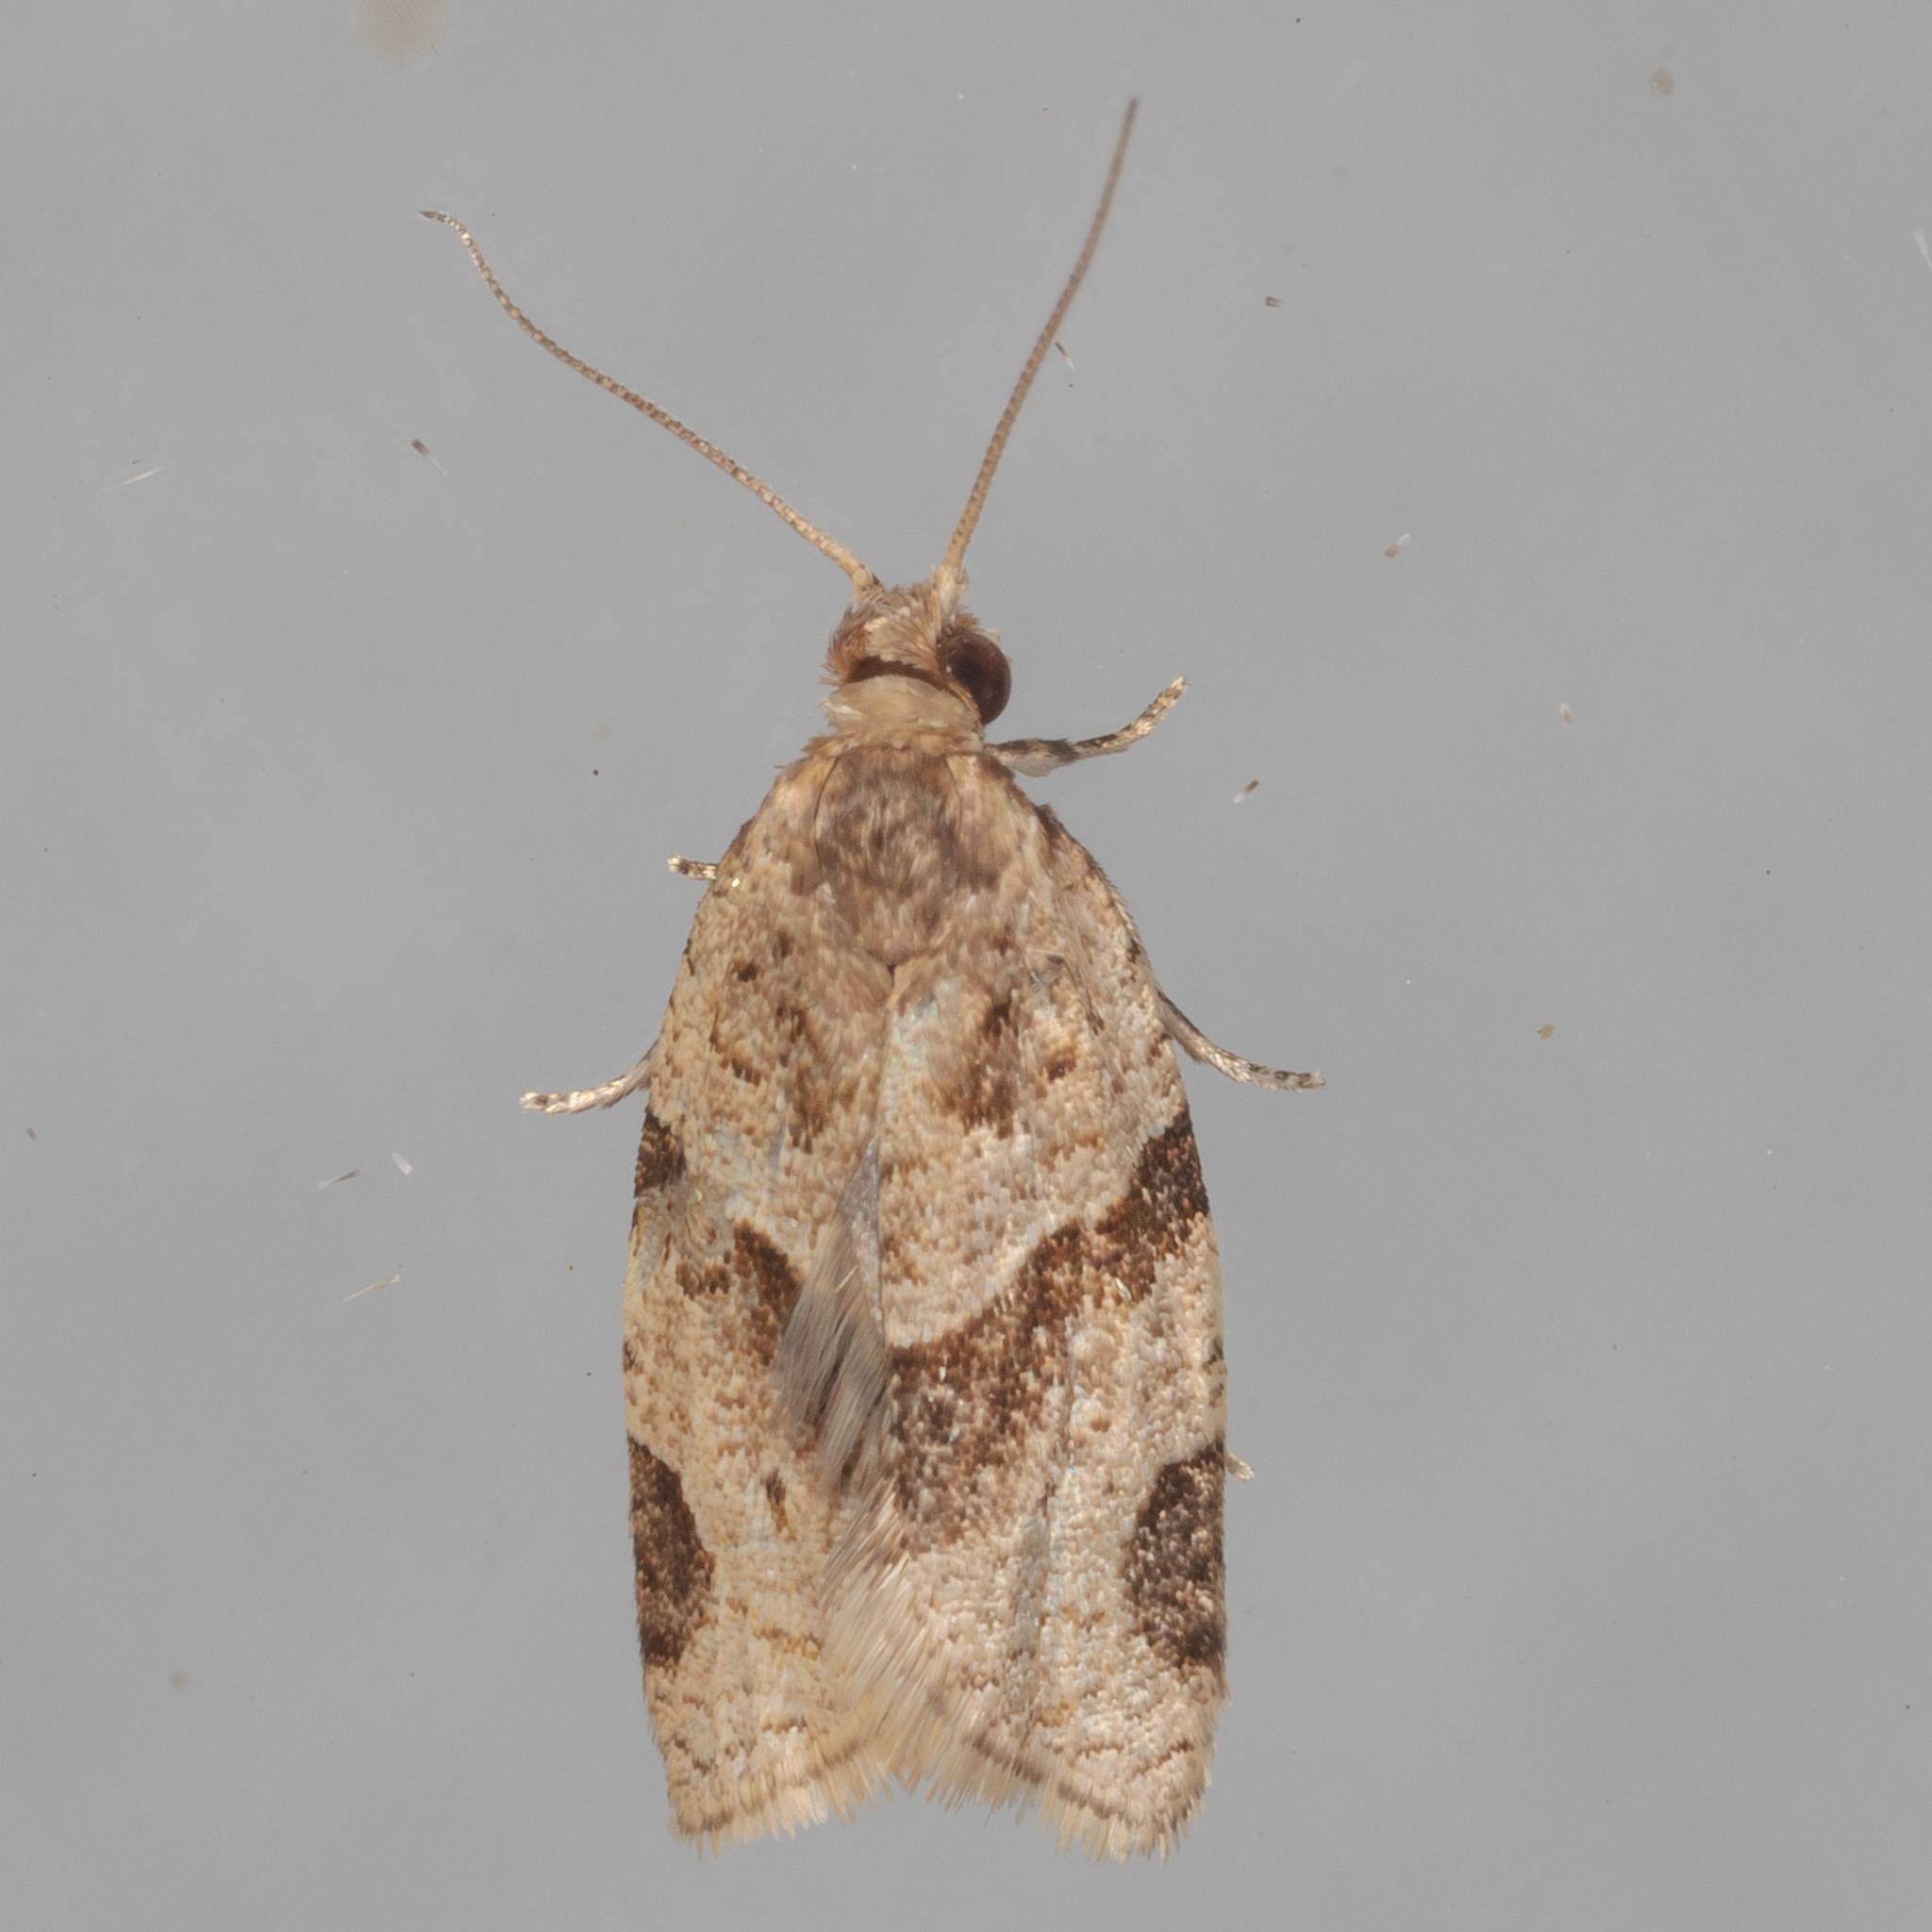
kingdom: Animalia
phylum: Arthropoda
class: Insecta
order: Lepidoptera
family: Tortricidae
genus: Clepsis
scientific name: Clepsis peritana
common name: Garden tortrix
